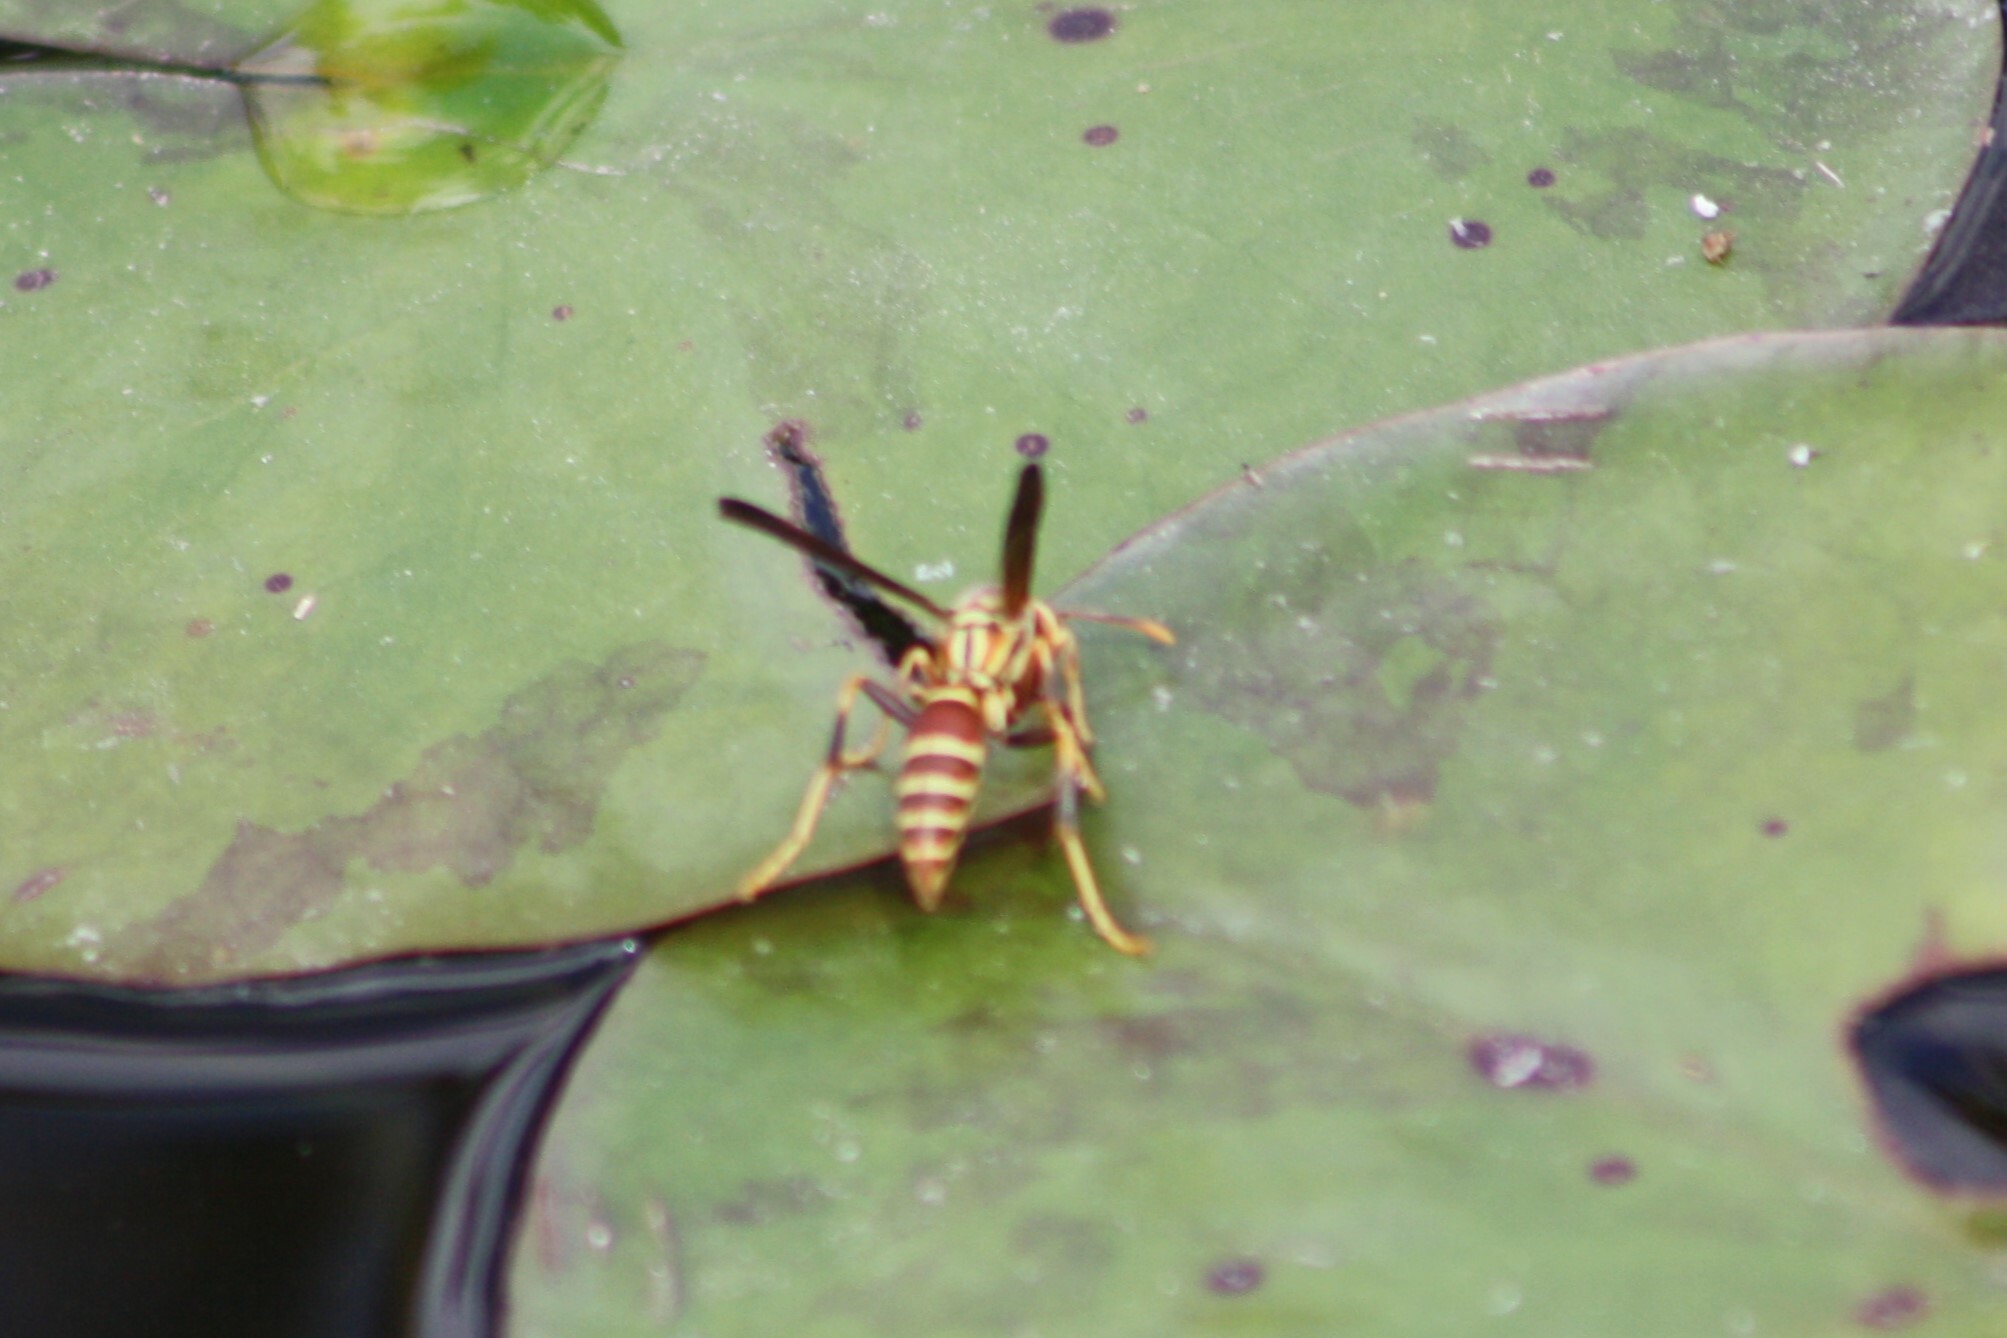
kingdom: Animalia
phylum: Arthropoda
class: Insecta
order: Hymenoptera
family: Eumenidae
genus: Polistes
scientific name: Polistes exclamans
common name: Paper wasp
